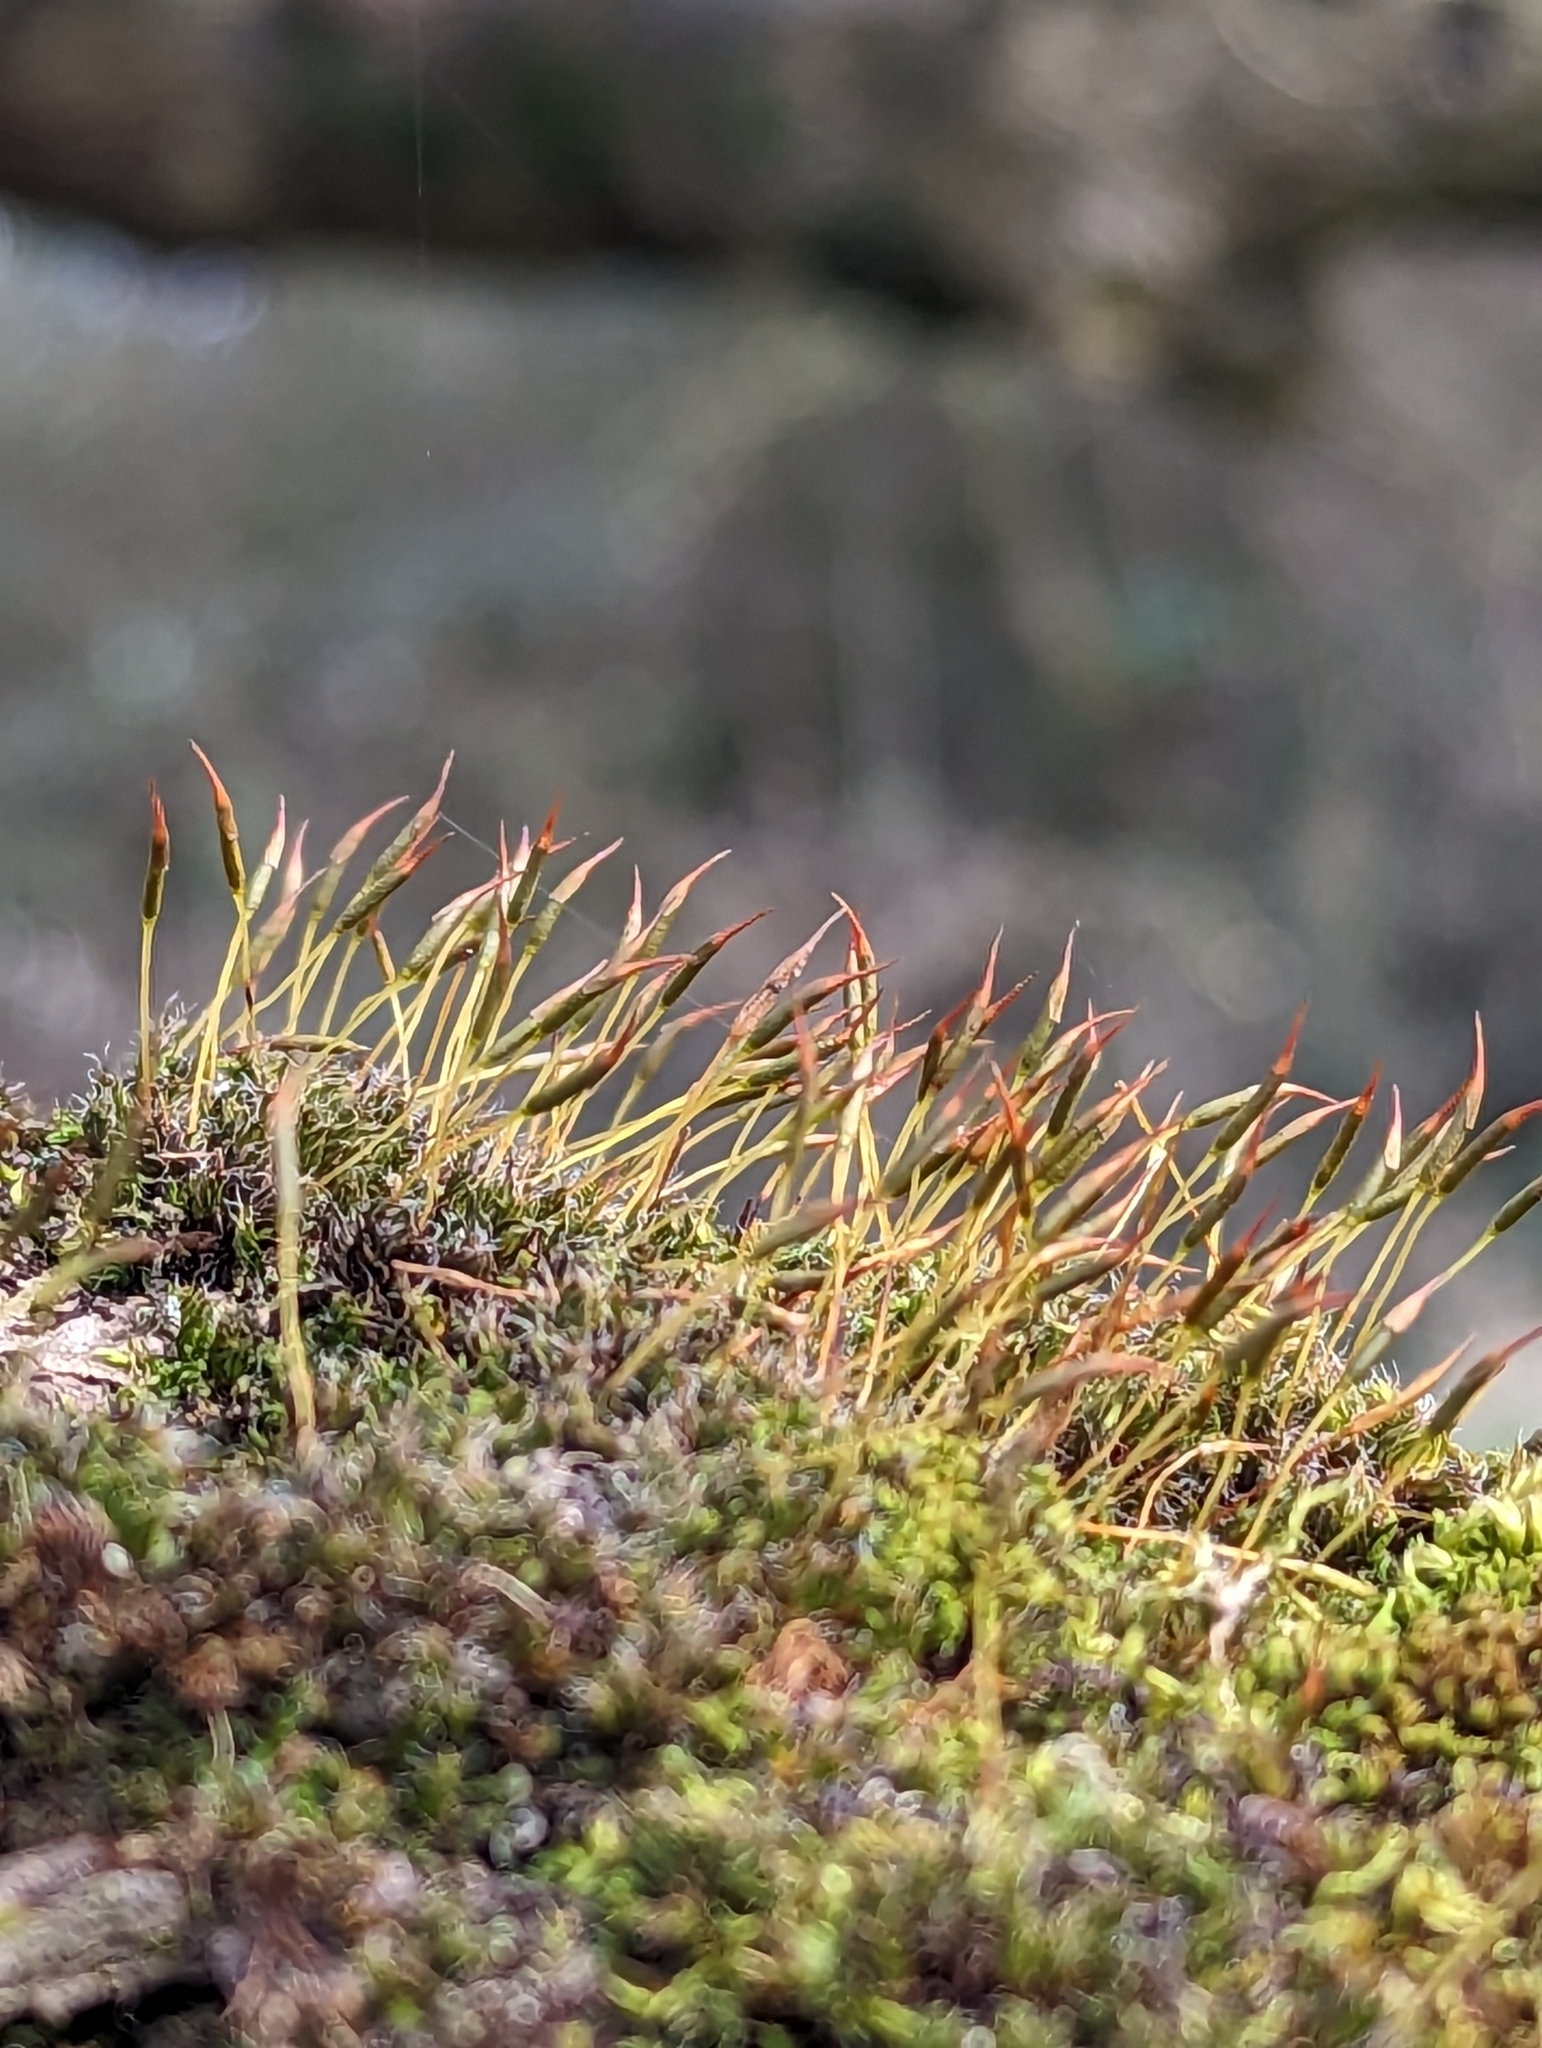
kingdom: Plantae
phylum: Bryophyta
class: Bryopsida
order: Pottiales
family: Pottiaceae
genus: Tortula
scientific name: Tortula muralis
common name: Wall screw-moss
